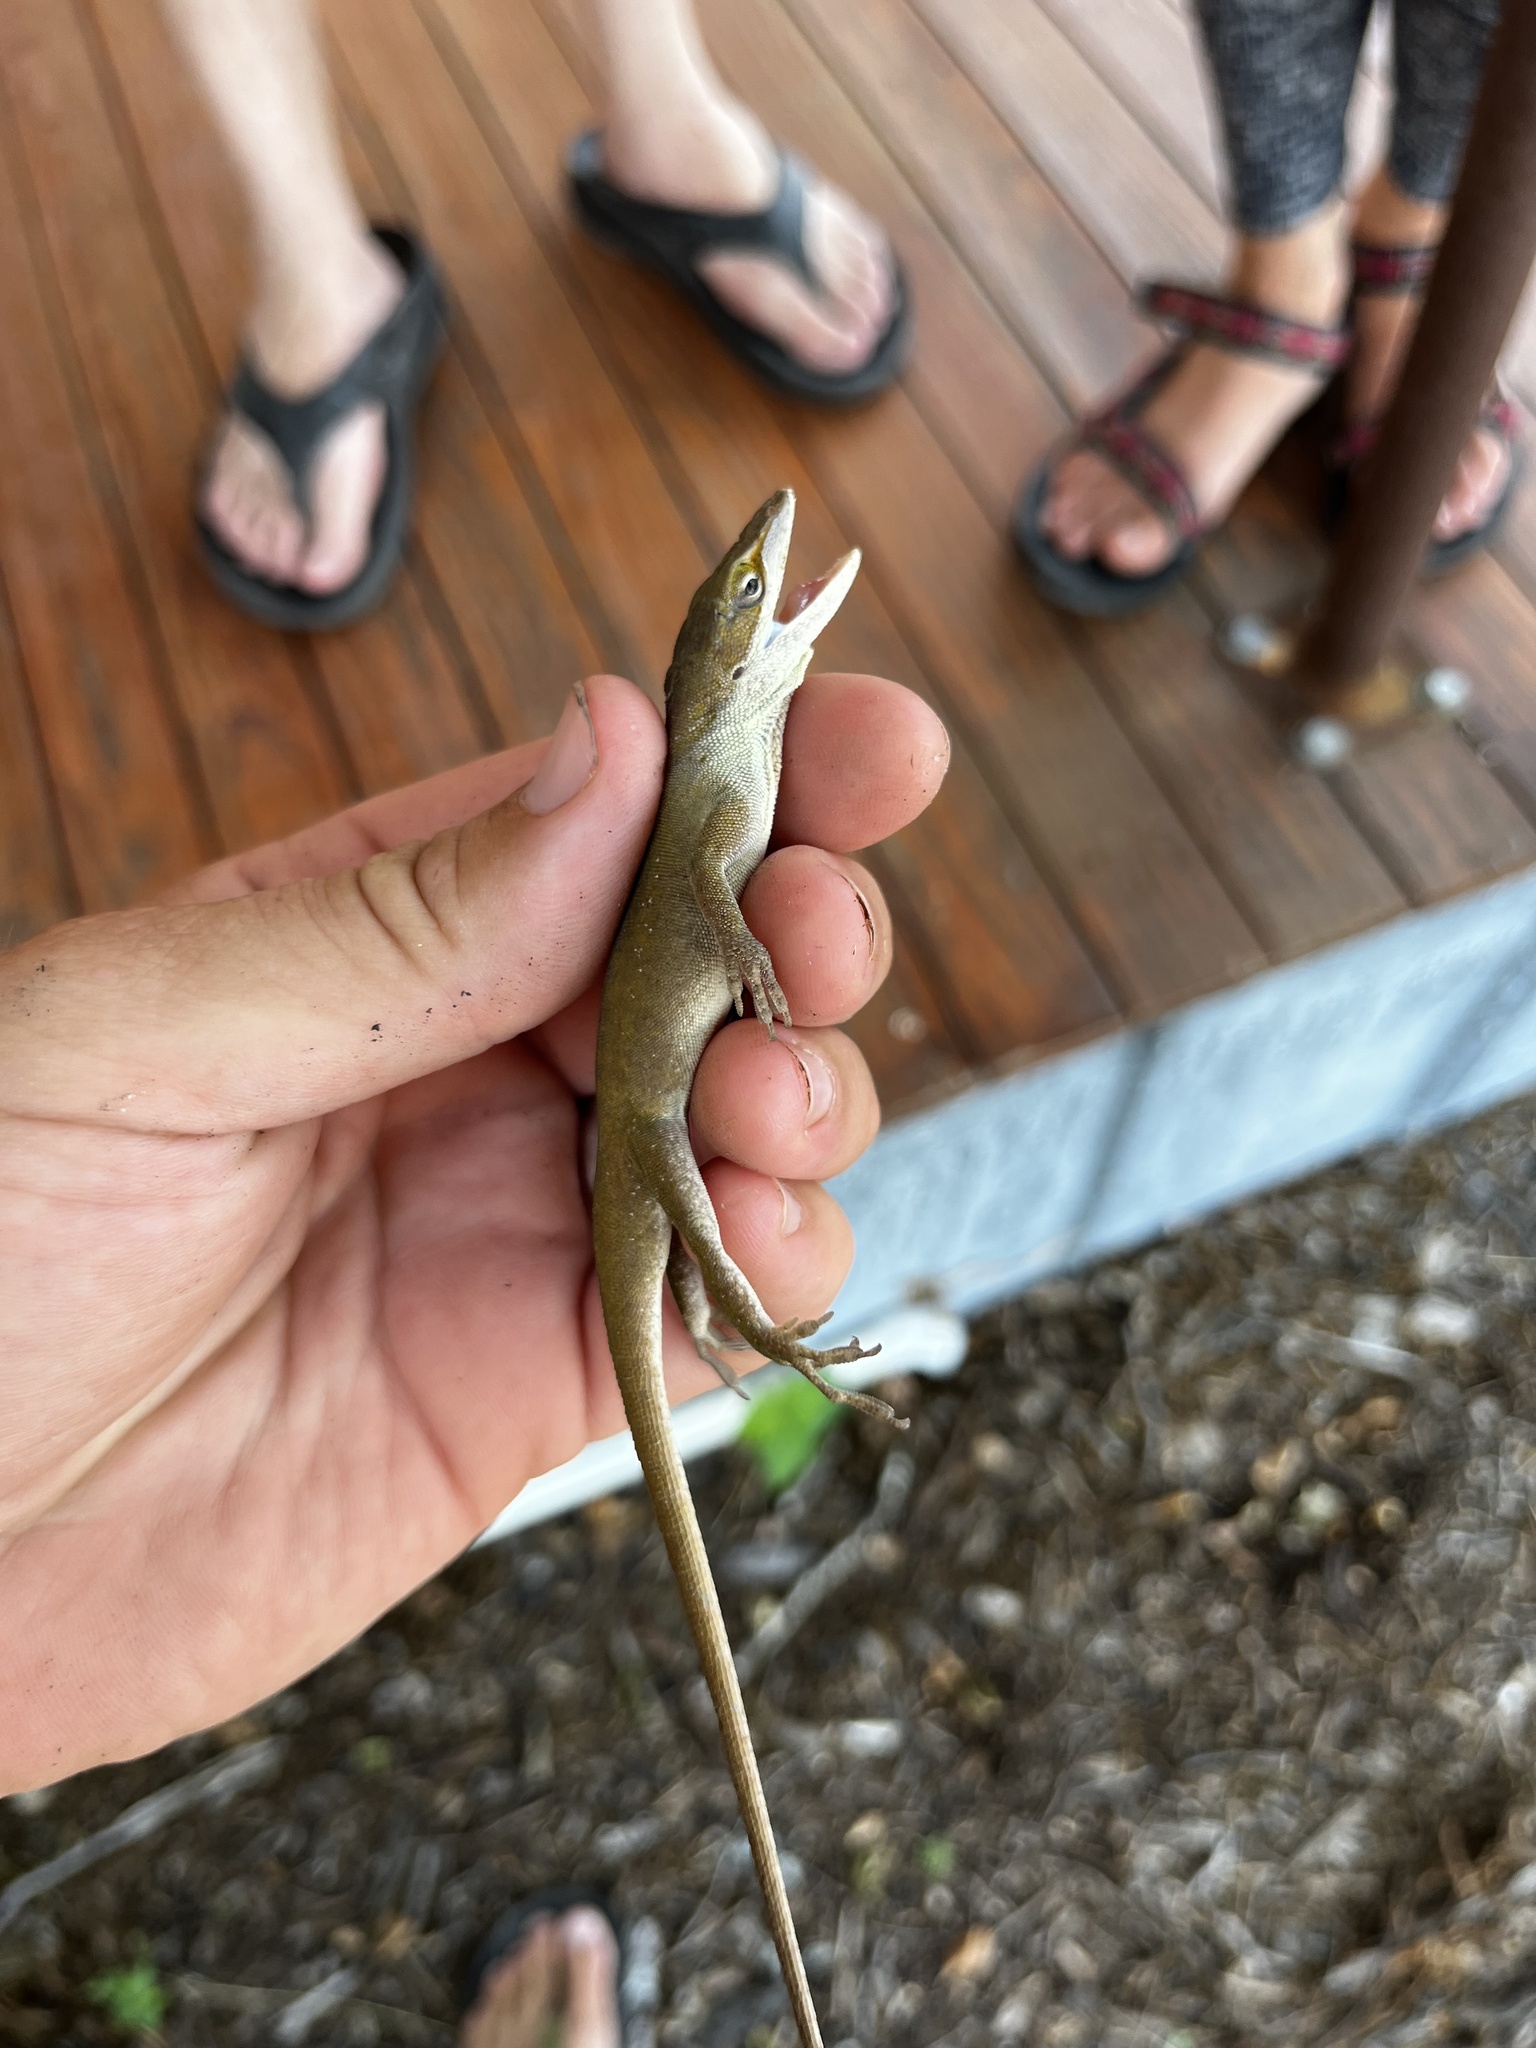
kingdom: Animalia
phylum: Chordata
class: Squamata
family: Dactyloidae
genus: Anolis
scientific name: Anolis carolinensis
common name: Green anole
